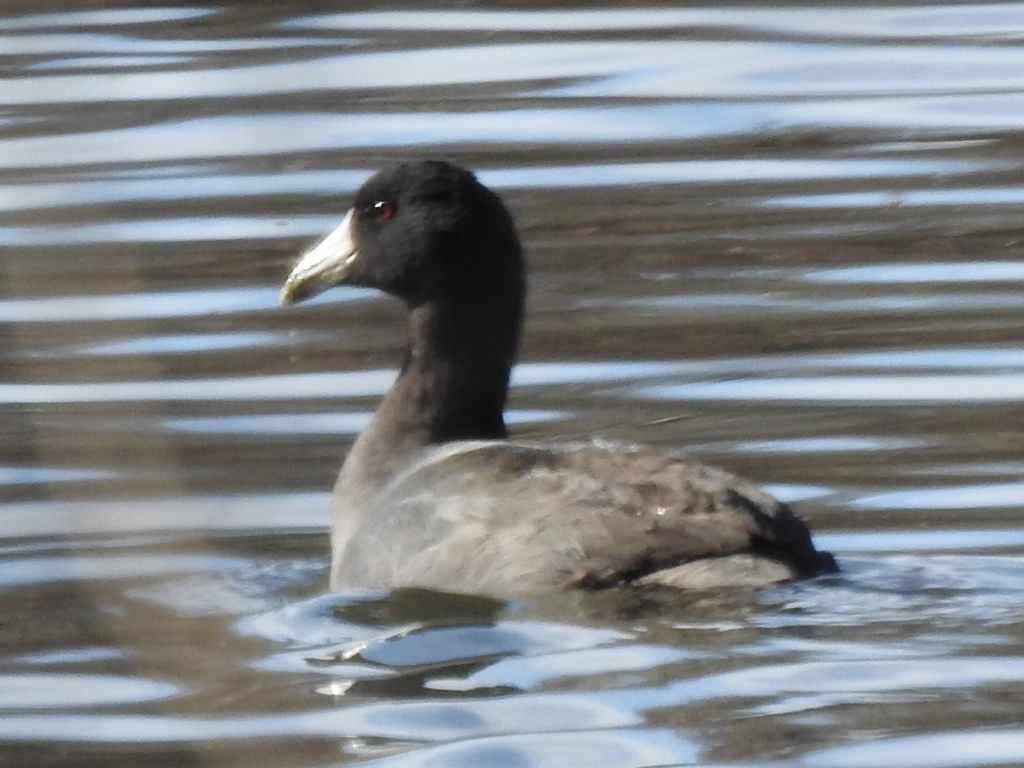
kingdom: Animalia
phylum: Chordata
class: Aves
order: Gruiformes
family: Rallidae
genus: Fulica
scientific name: Fulica americana
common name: American coot
